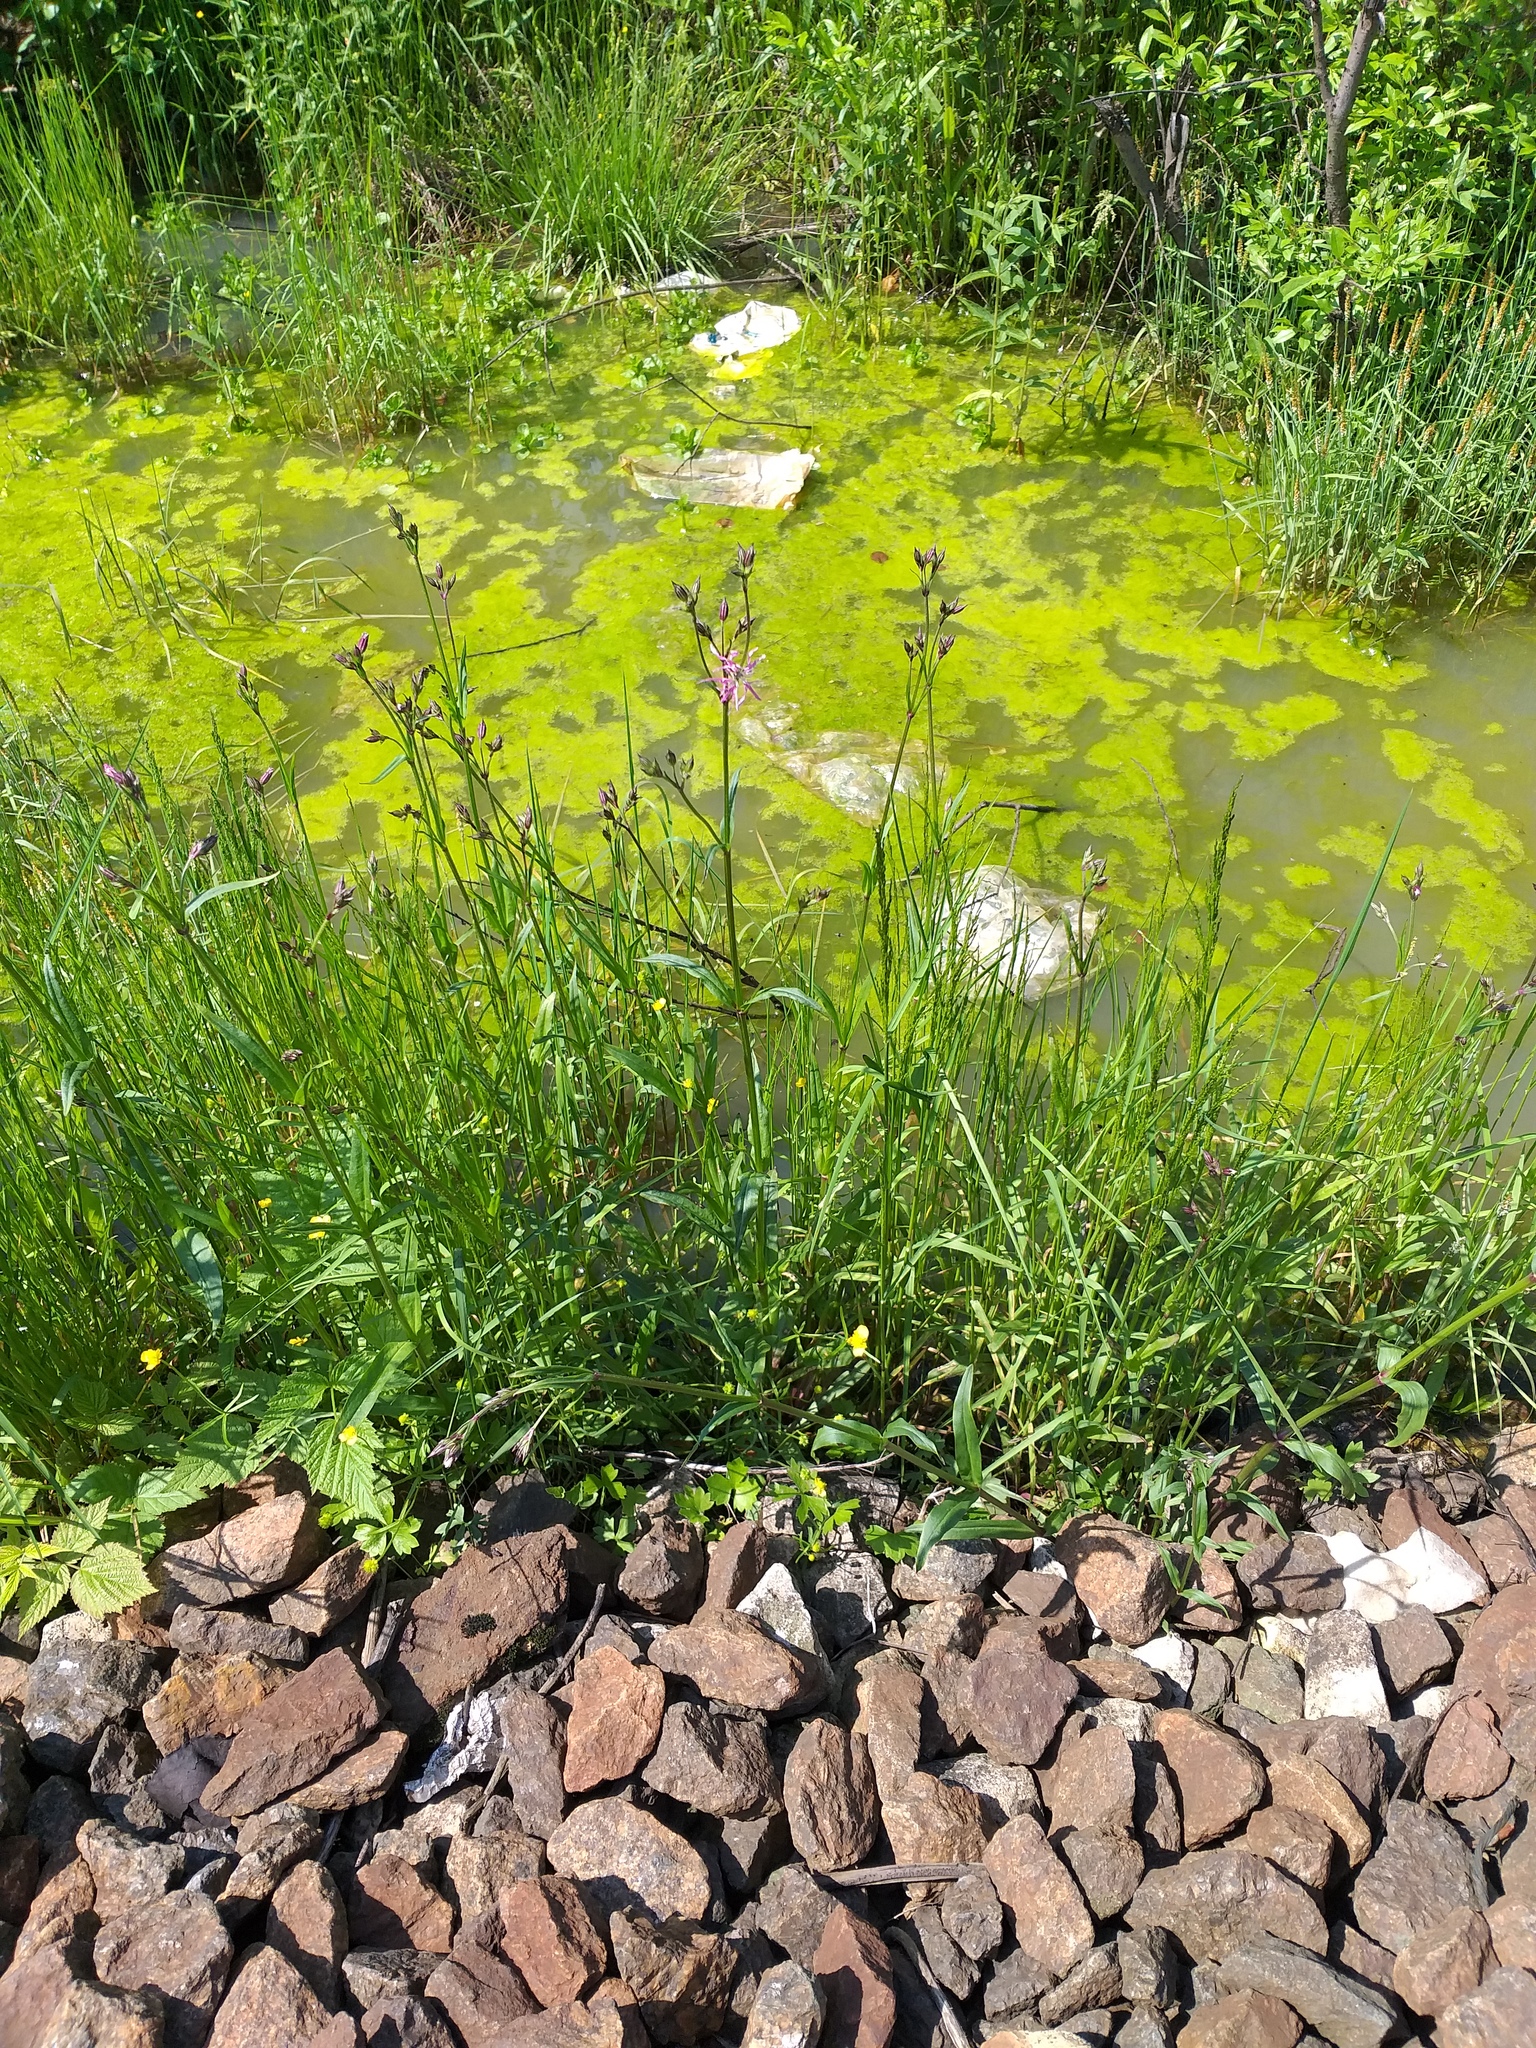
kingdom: Plantae
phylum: Tracheophyta
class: Magnoliopsida
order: Caryophyllales
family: Caryophyllaceae
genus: Silene
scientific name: Silene flos-cuculi
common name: Ragged-robin
